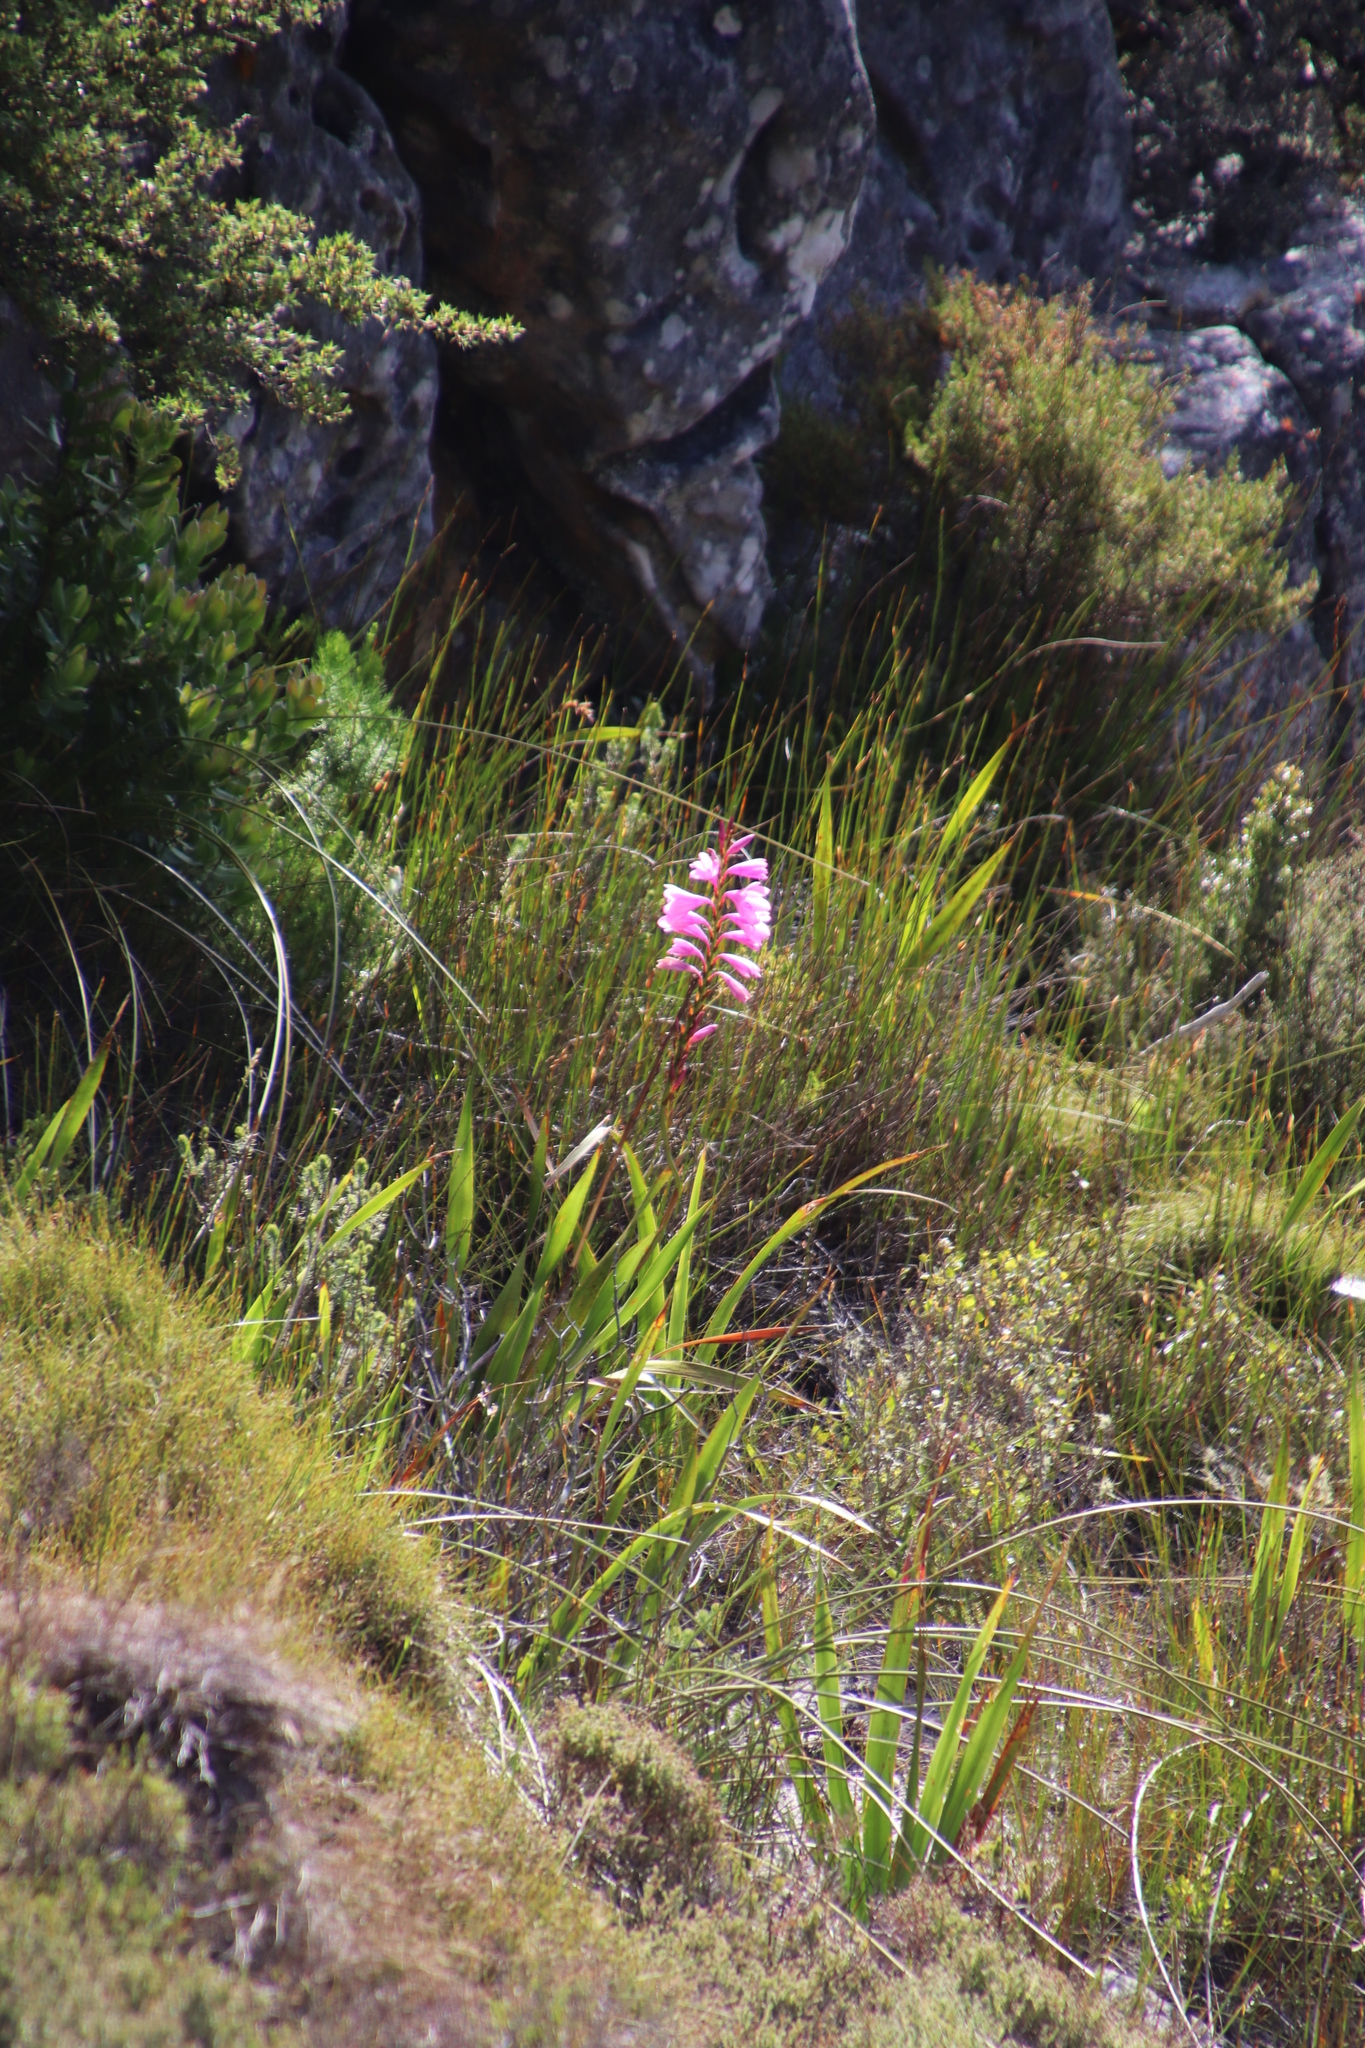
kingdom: Plantae
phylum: Tracheophyta
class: Liliopsida
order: Asparagales
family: Iridaceae
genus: Watsonia
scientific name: Watsonia borbonica
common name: Bugle-lily
